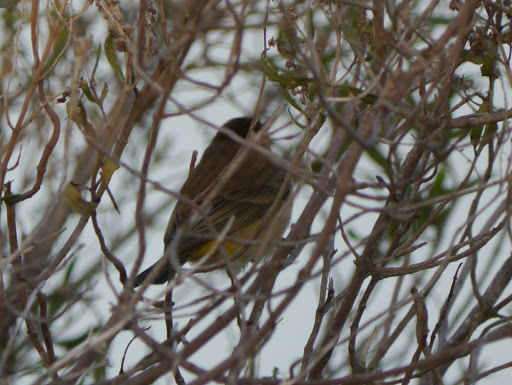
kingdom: Animalia
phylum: Chordata
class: Aves
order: Passeriformes
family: Parulidae
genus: Setophaga
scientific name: Setophaga palmarum
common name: Palm warbler
